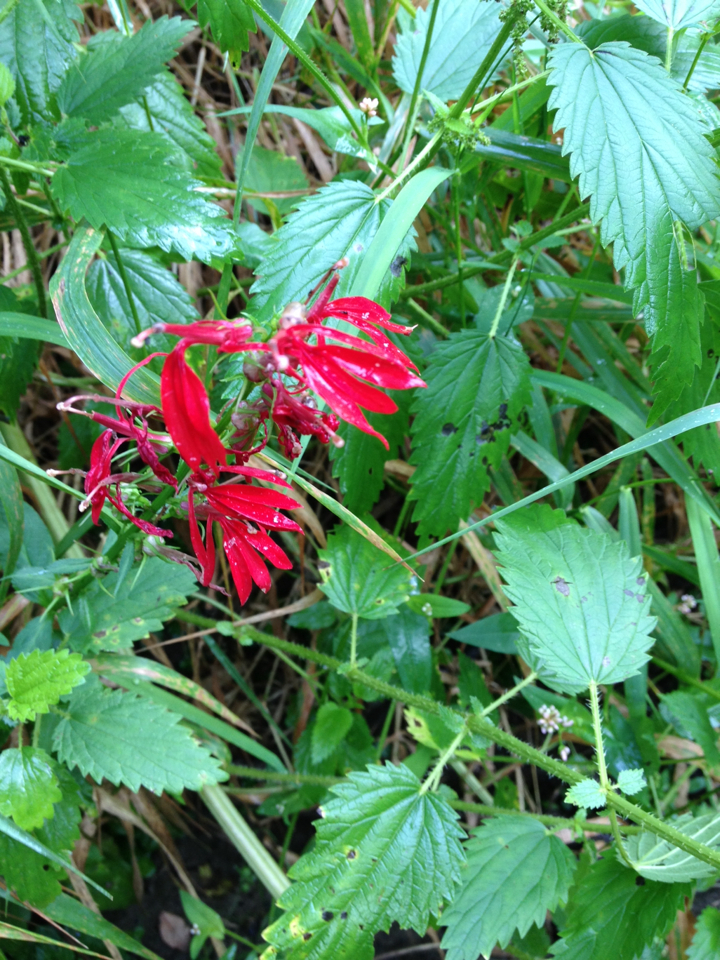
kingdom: Plantae
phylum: Tracheophyta
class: Magnoliopsida
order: Asterales
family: Campanulaceae
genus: Lobelia
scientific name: Lobelia cardinalis
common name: Cardinal flower
